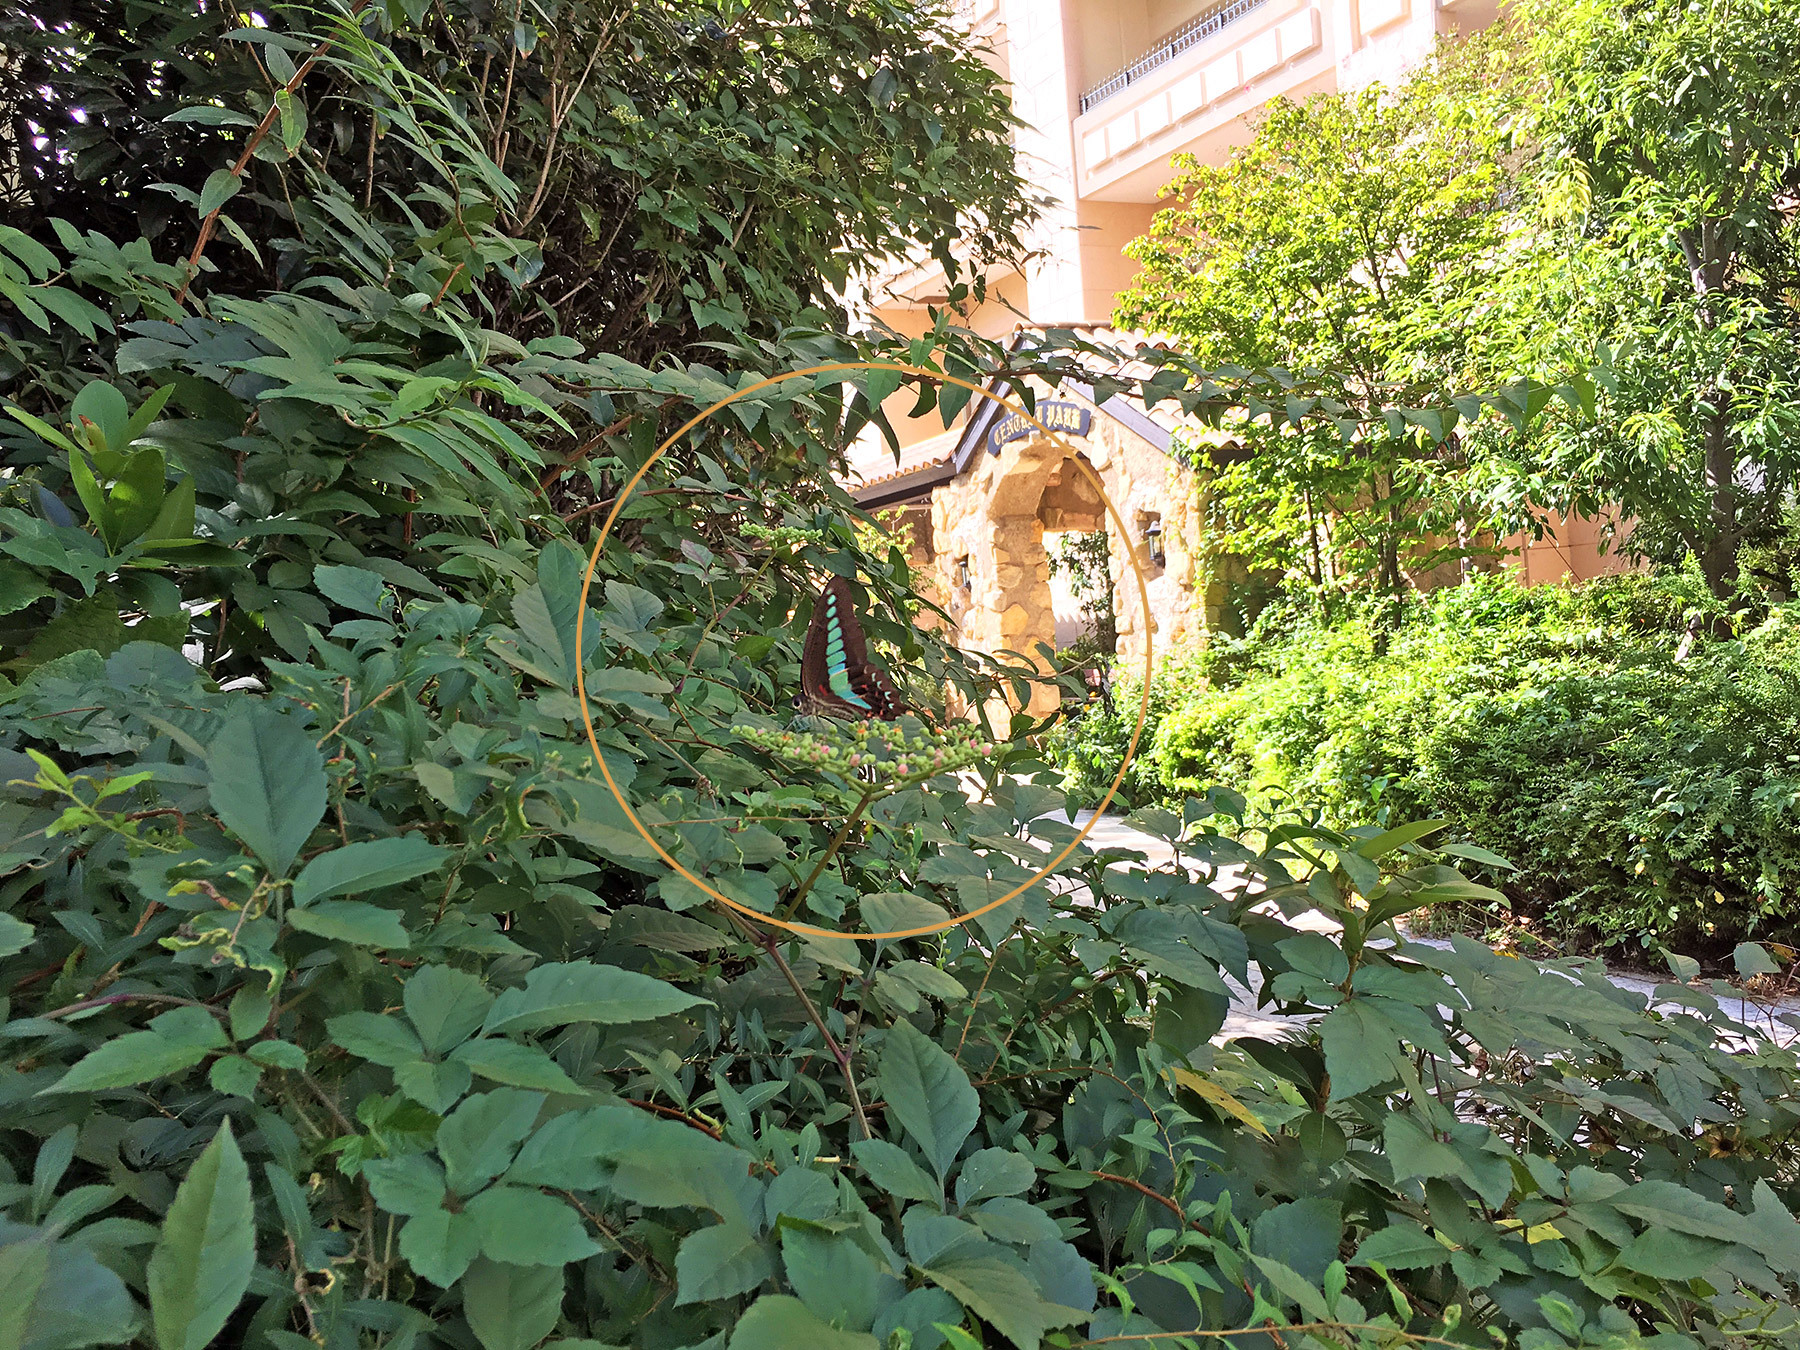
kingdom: Fungi
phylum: Ascomycota
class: Sordariomycetes
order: Microascales
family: Microascaceae
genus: Graphium
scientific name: Graphium sarpedon
